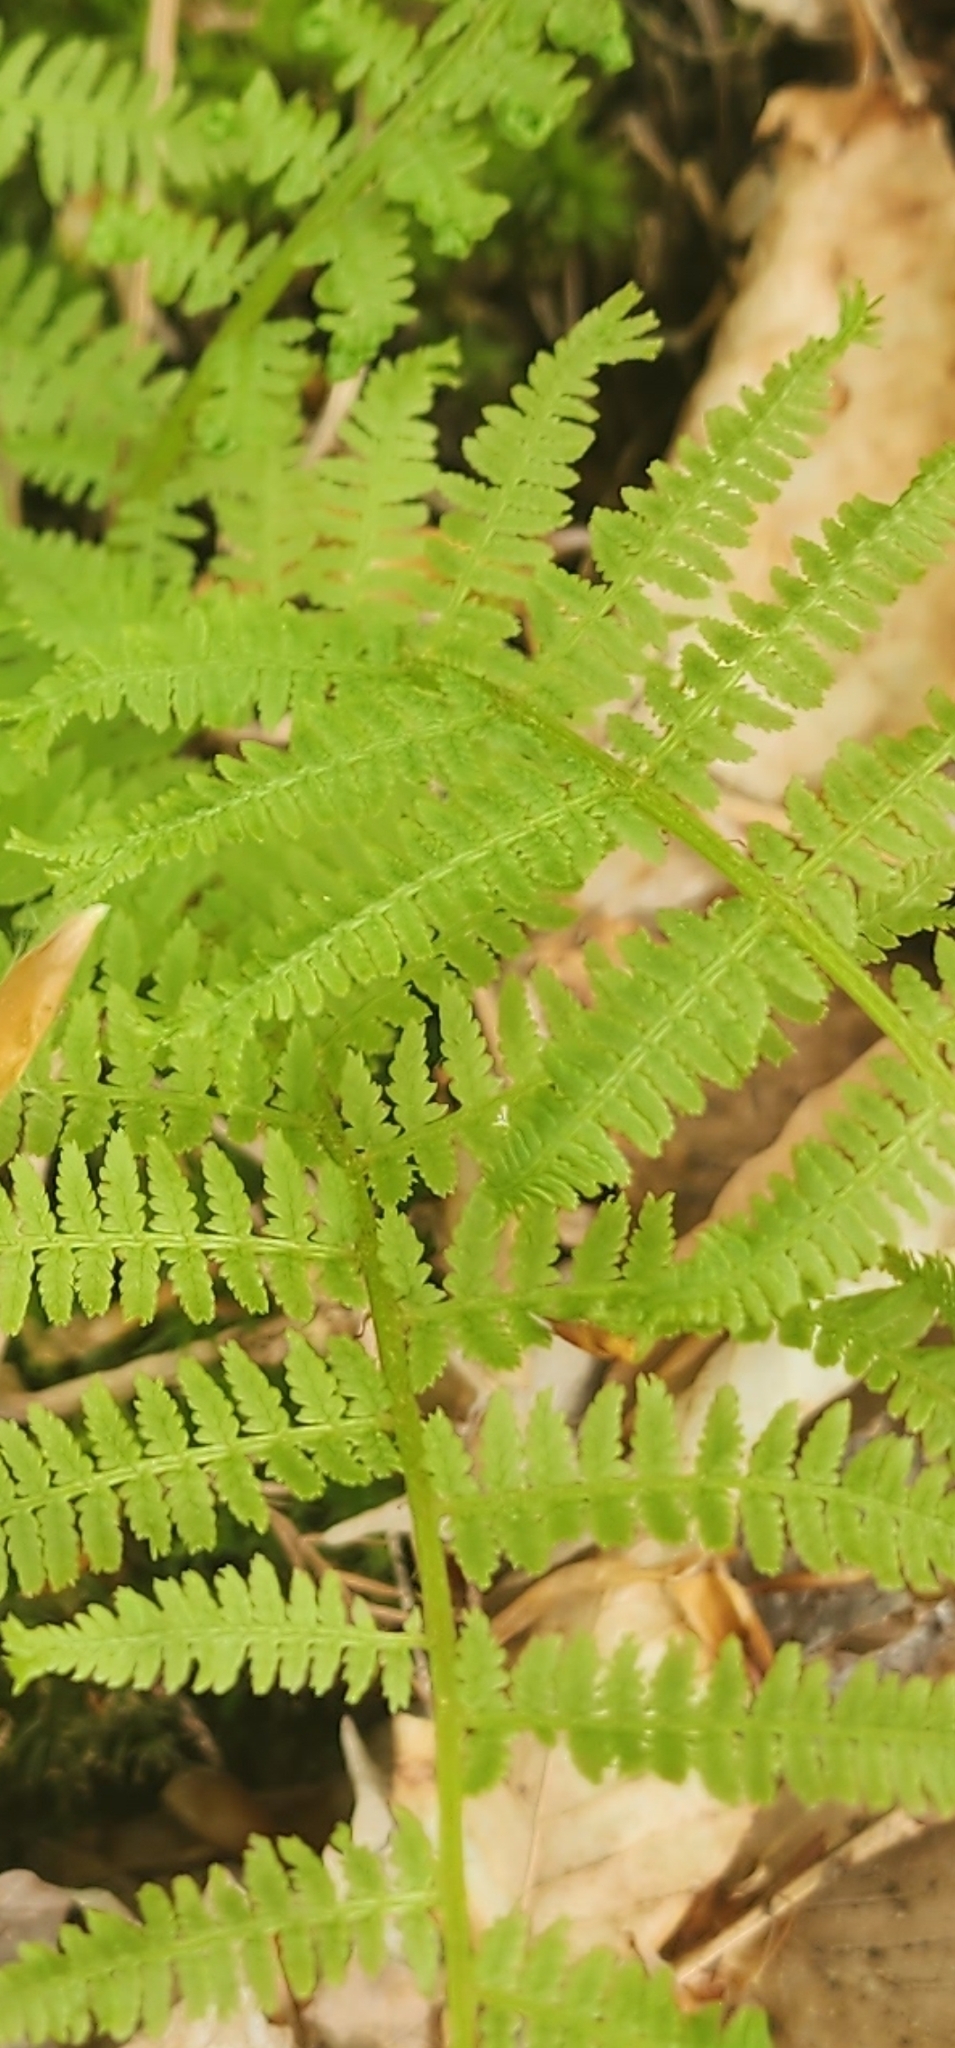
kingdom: Plantae
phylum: Tracheophyta
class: Polypodiopsida
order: Polypodiales
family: Athyriaceae
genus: Athyrium
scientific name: Athyrium asplenioides
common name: Southern lady fern
